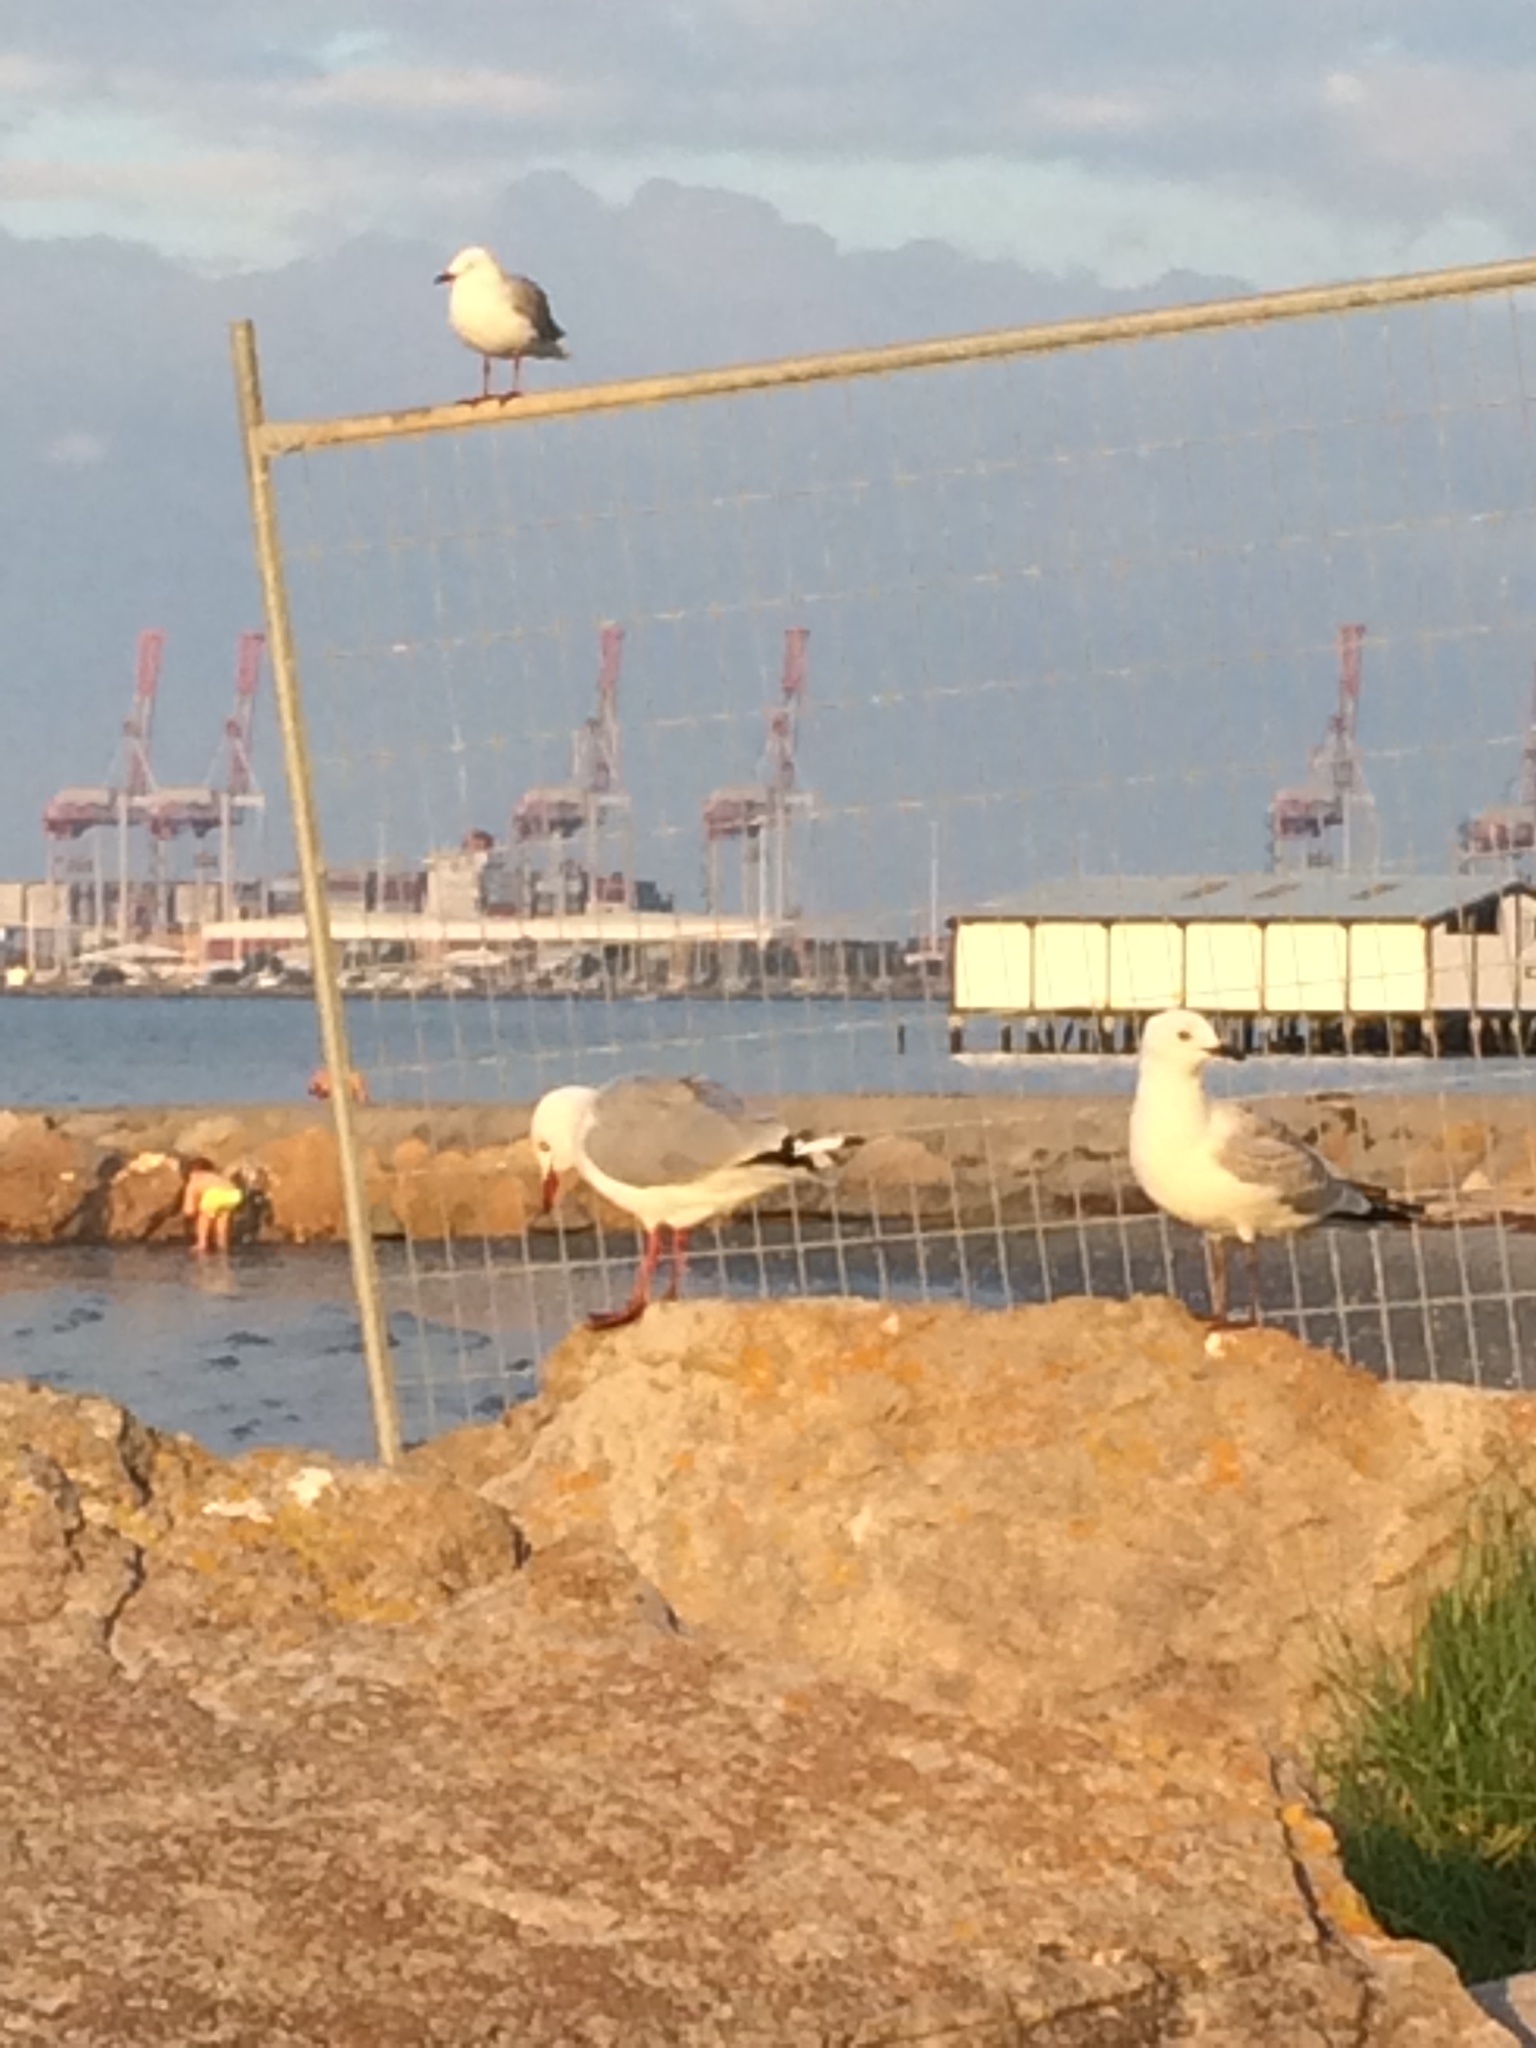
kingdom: Animalia
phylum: Chordata
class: Aves
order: Charadriiformes
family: Laridae
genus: Chroicocephalus
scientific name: Chroicocephalus novaehollandiae
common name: Silver gull
